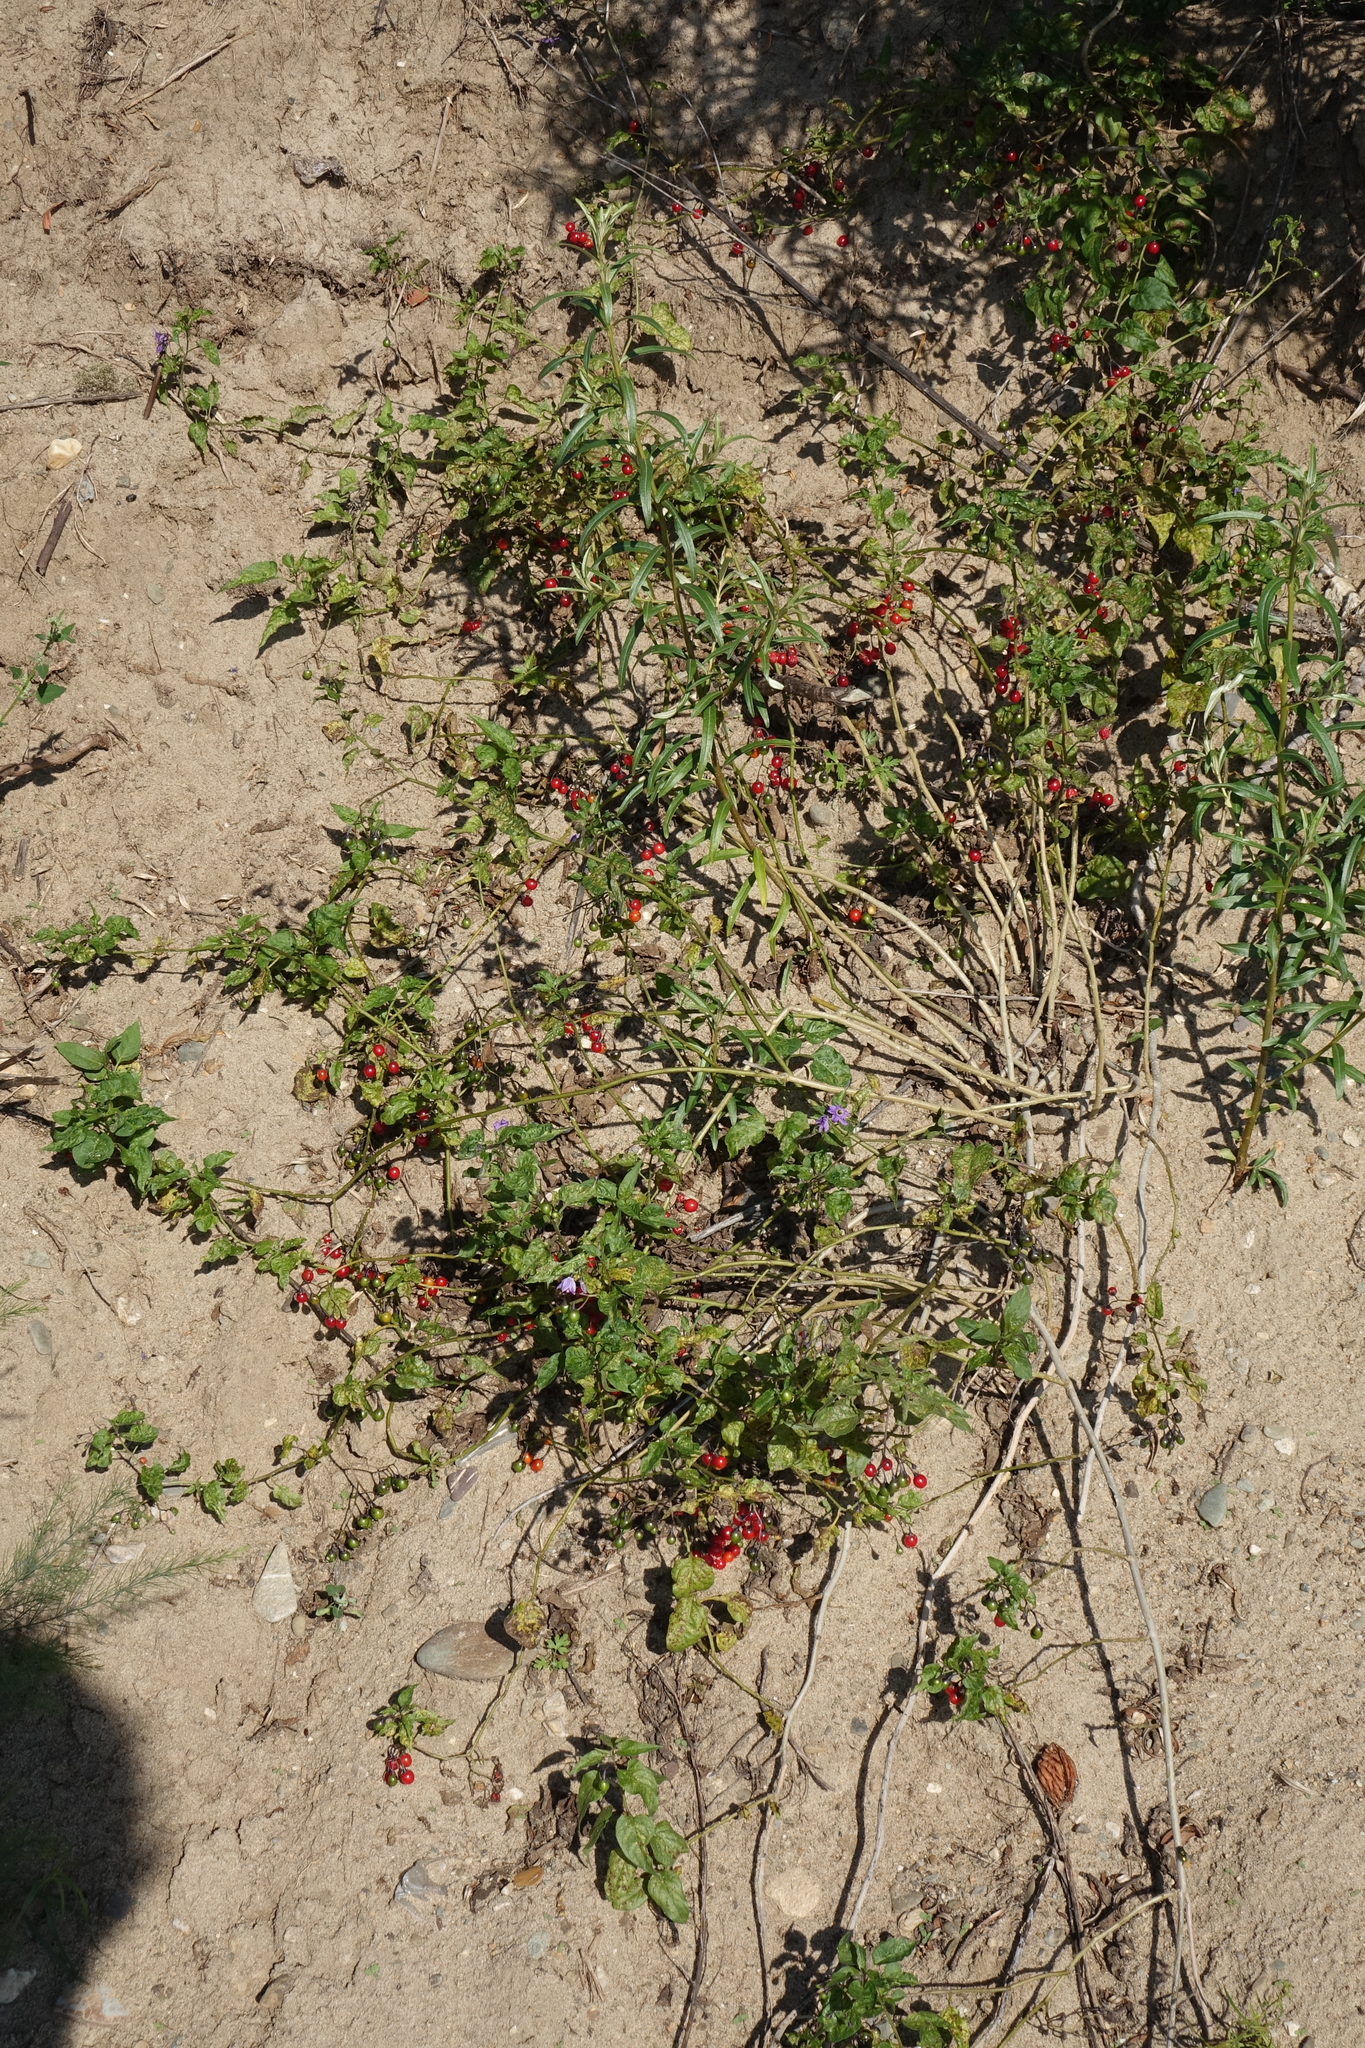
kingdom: Plantae
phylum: Tracheophyta
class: Magnoliopsida
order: Solanales
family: Solanaceae
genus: Solanum
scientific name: Solanum dulcamara
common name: Climbing nightshade
